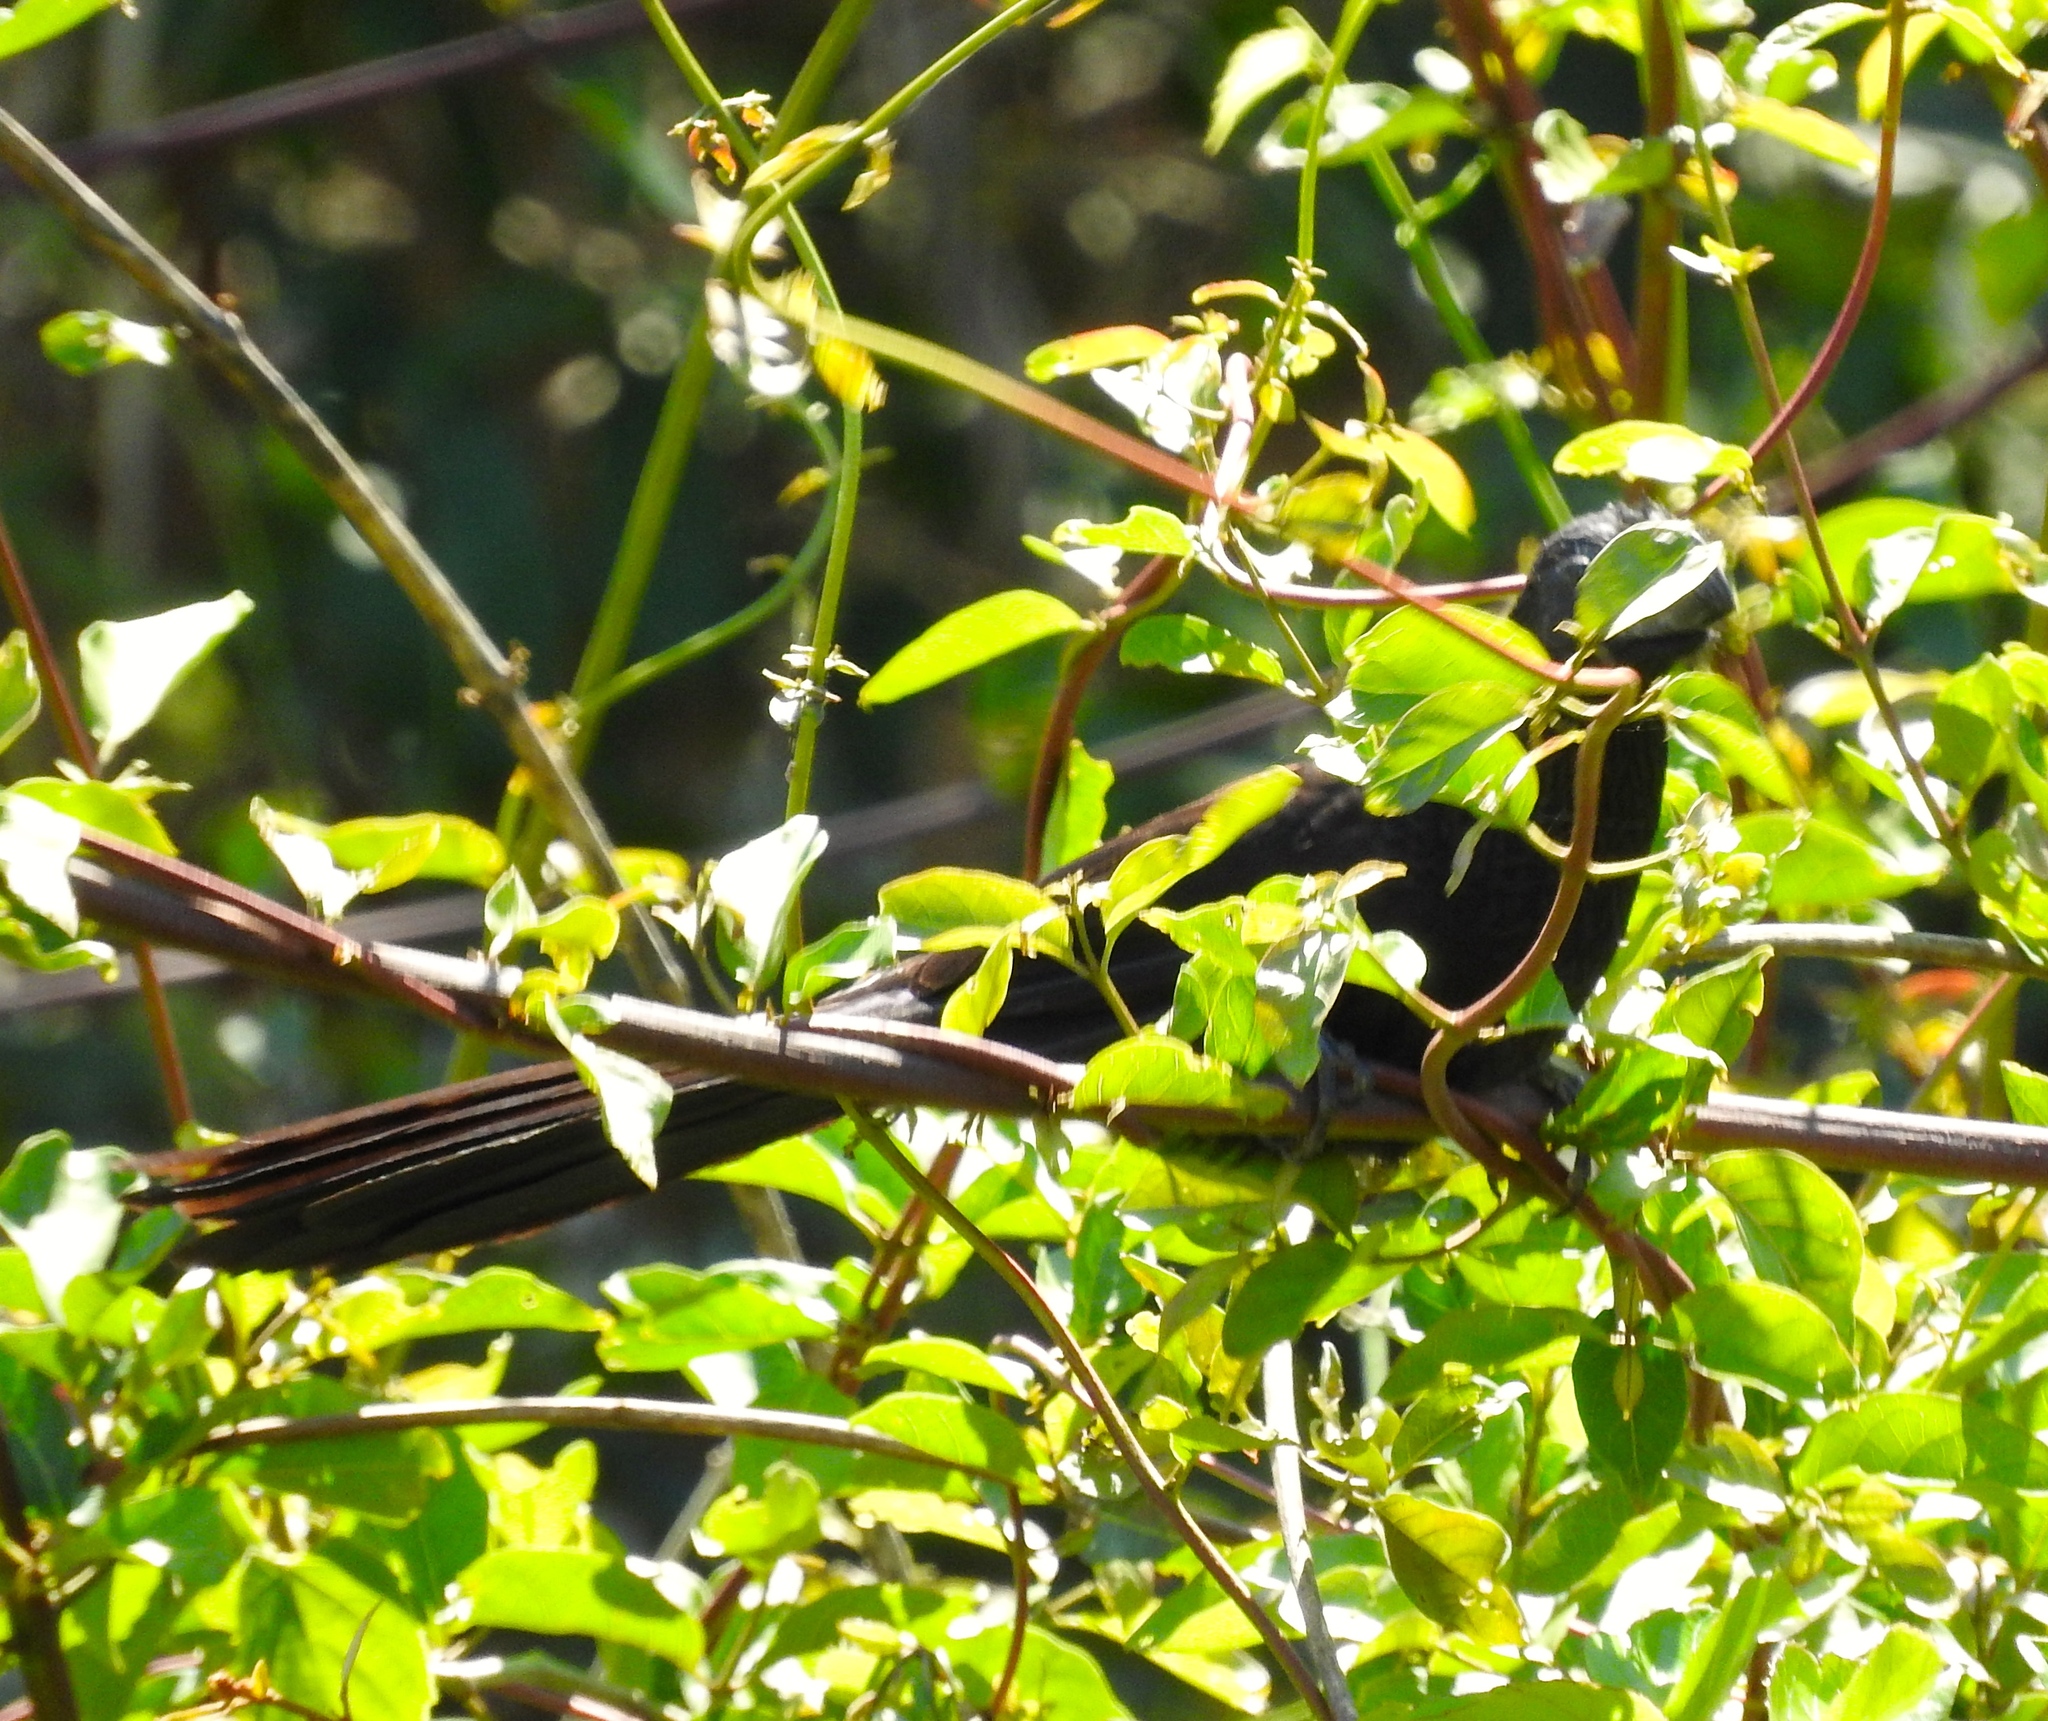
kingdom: Animalia
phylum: Chordata
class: Aves
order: Cuculiformes
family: Cuculidae
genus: Crotophaga
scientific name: Crotophaga sulcirostris
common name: Groove-billed ani
